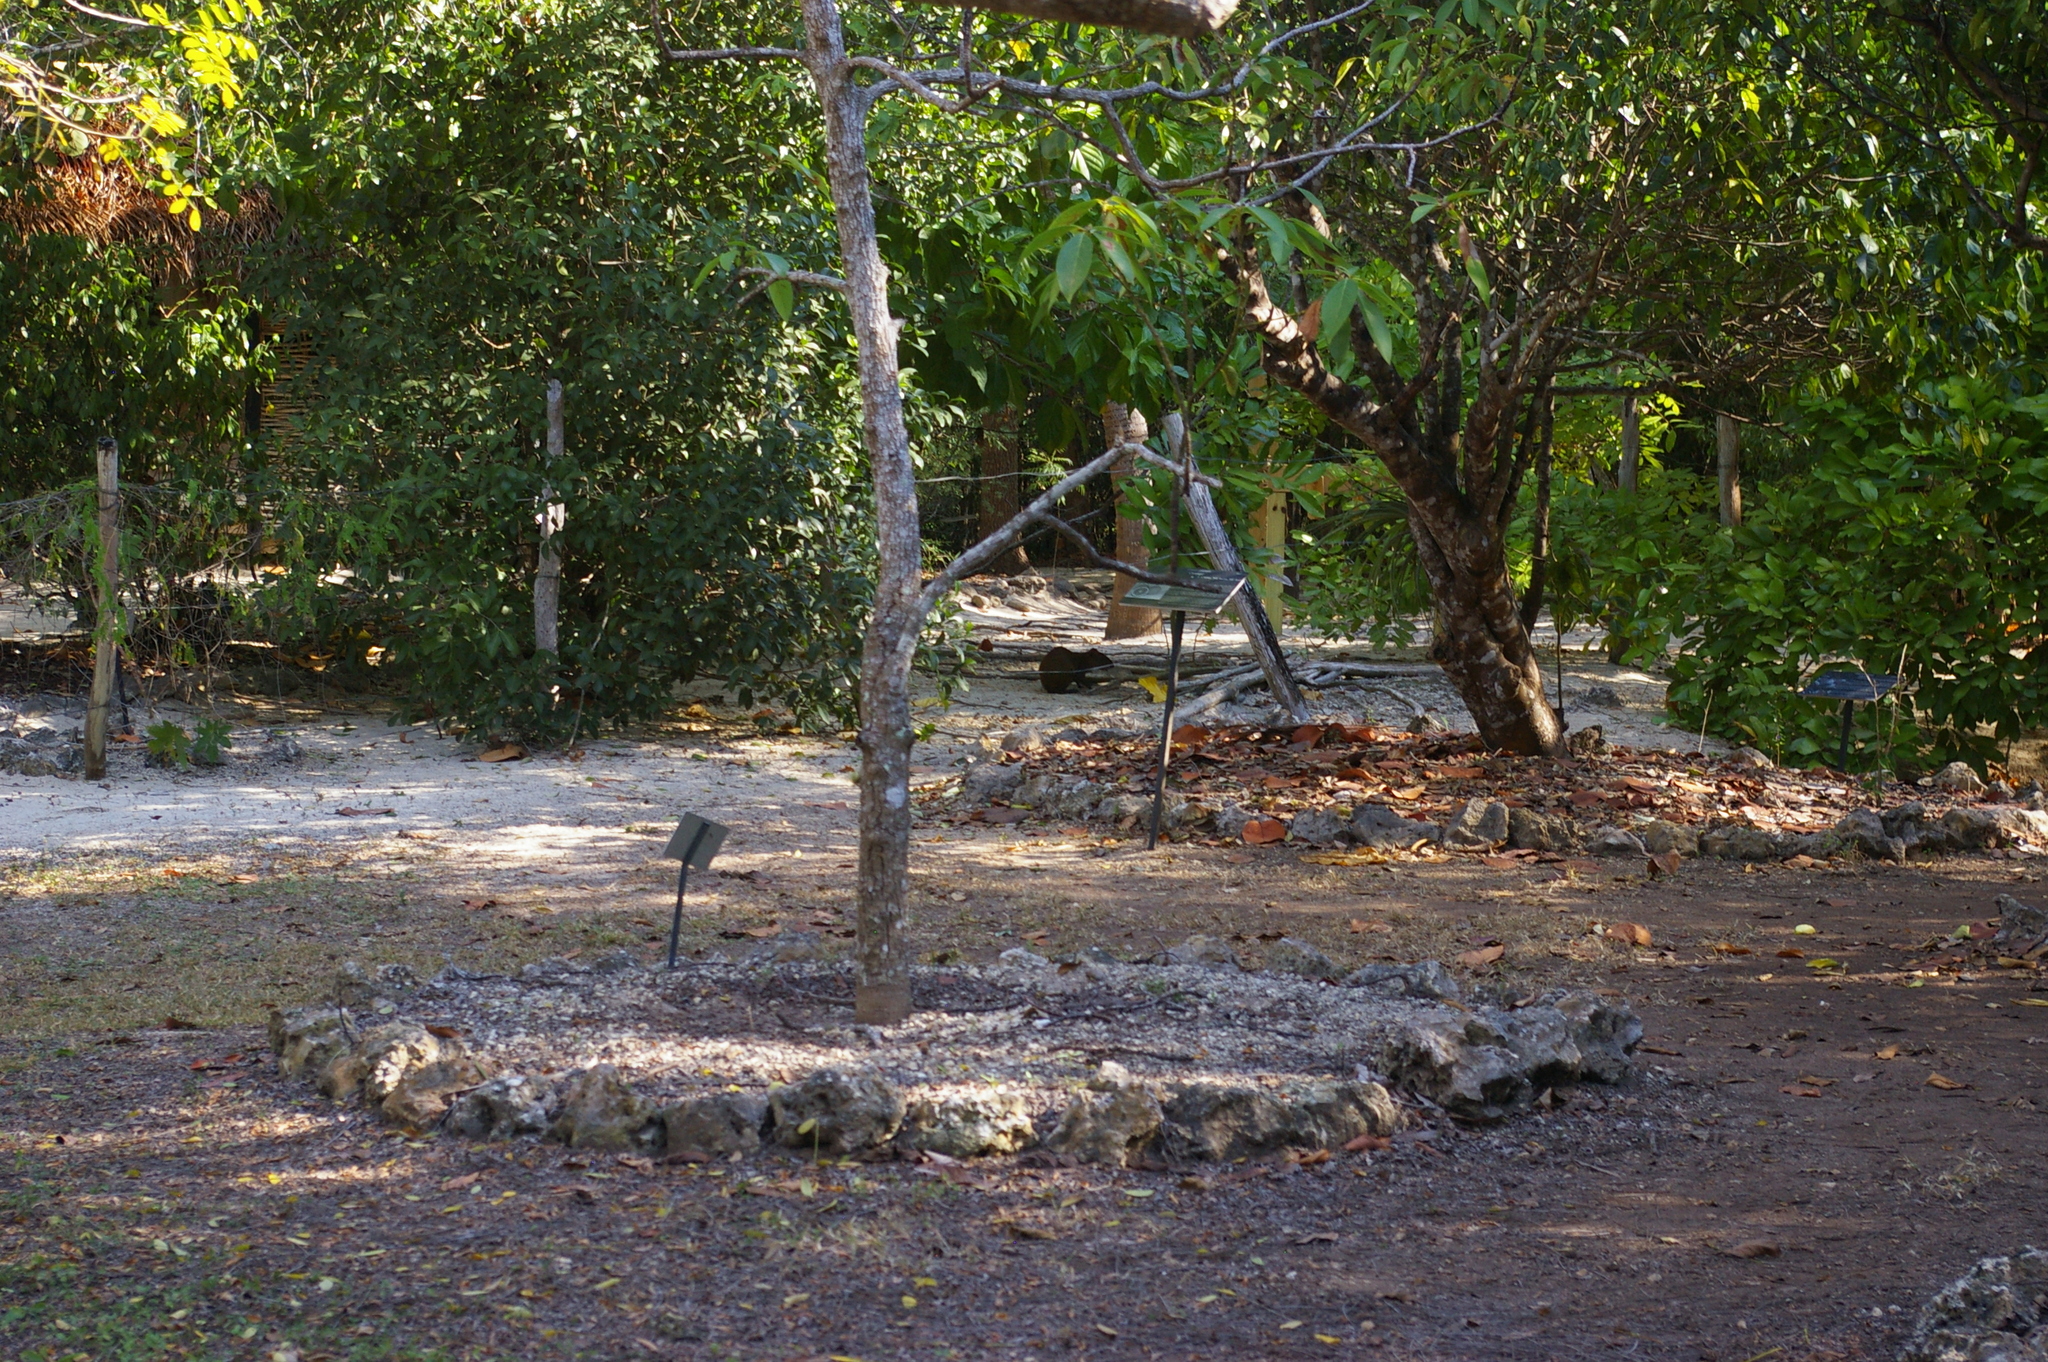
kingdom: Animalia
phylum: Chordata
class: Mammalia
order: Rodentia
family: Dasyproctidae
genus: Dasyprocta
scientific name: Dasyprocta punctata
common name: Central american agouti
